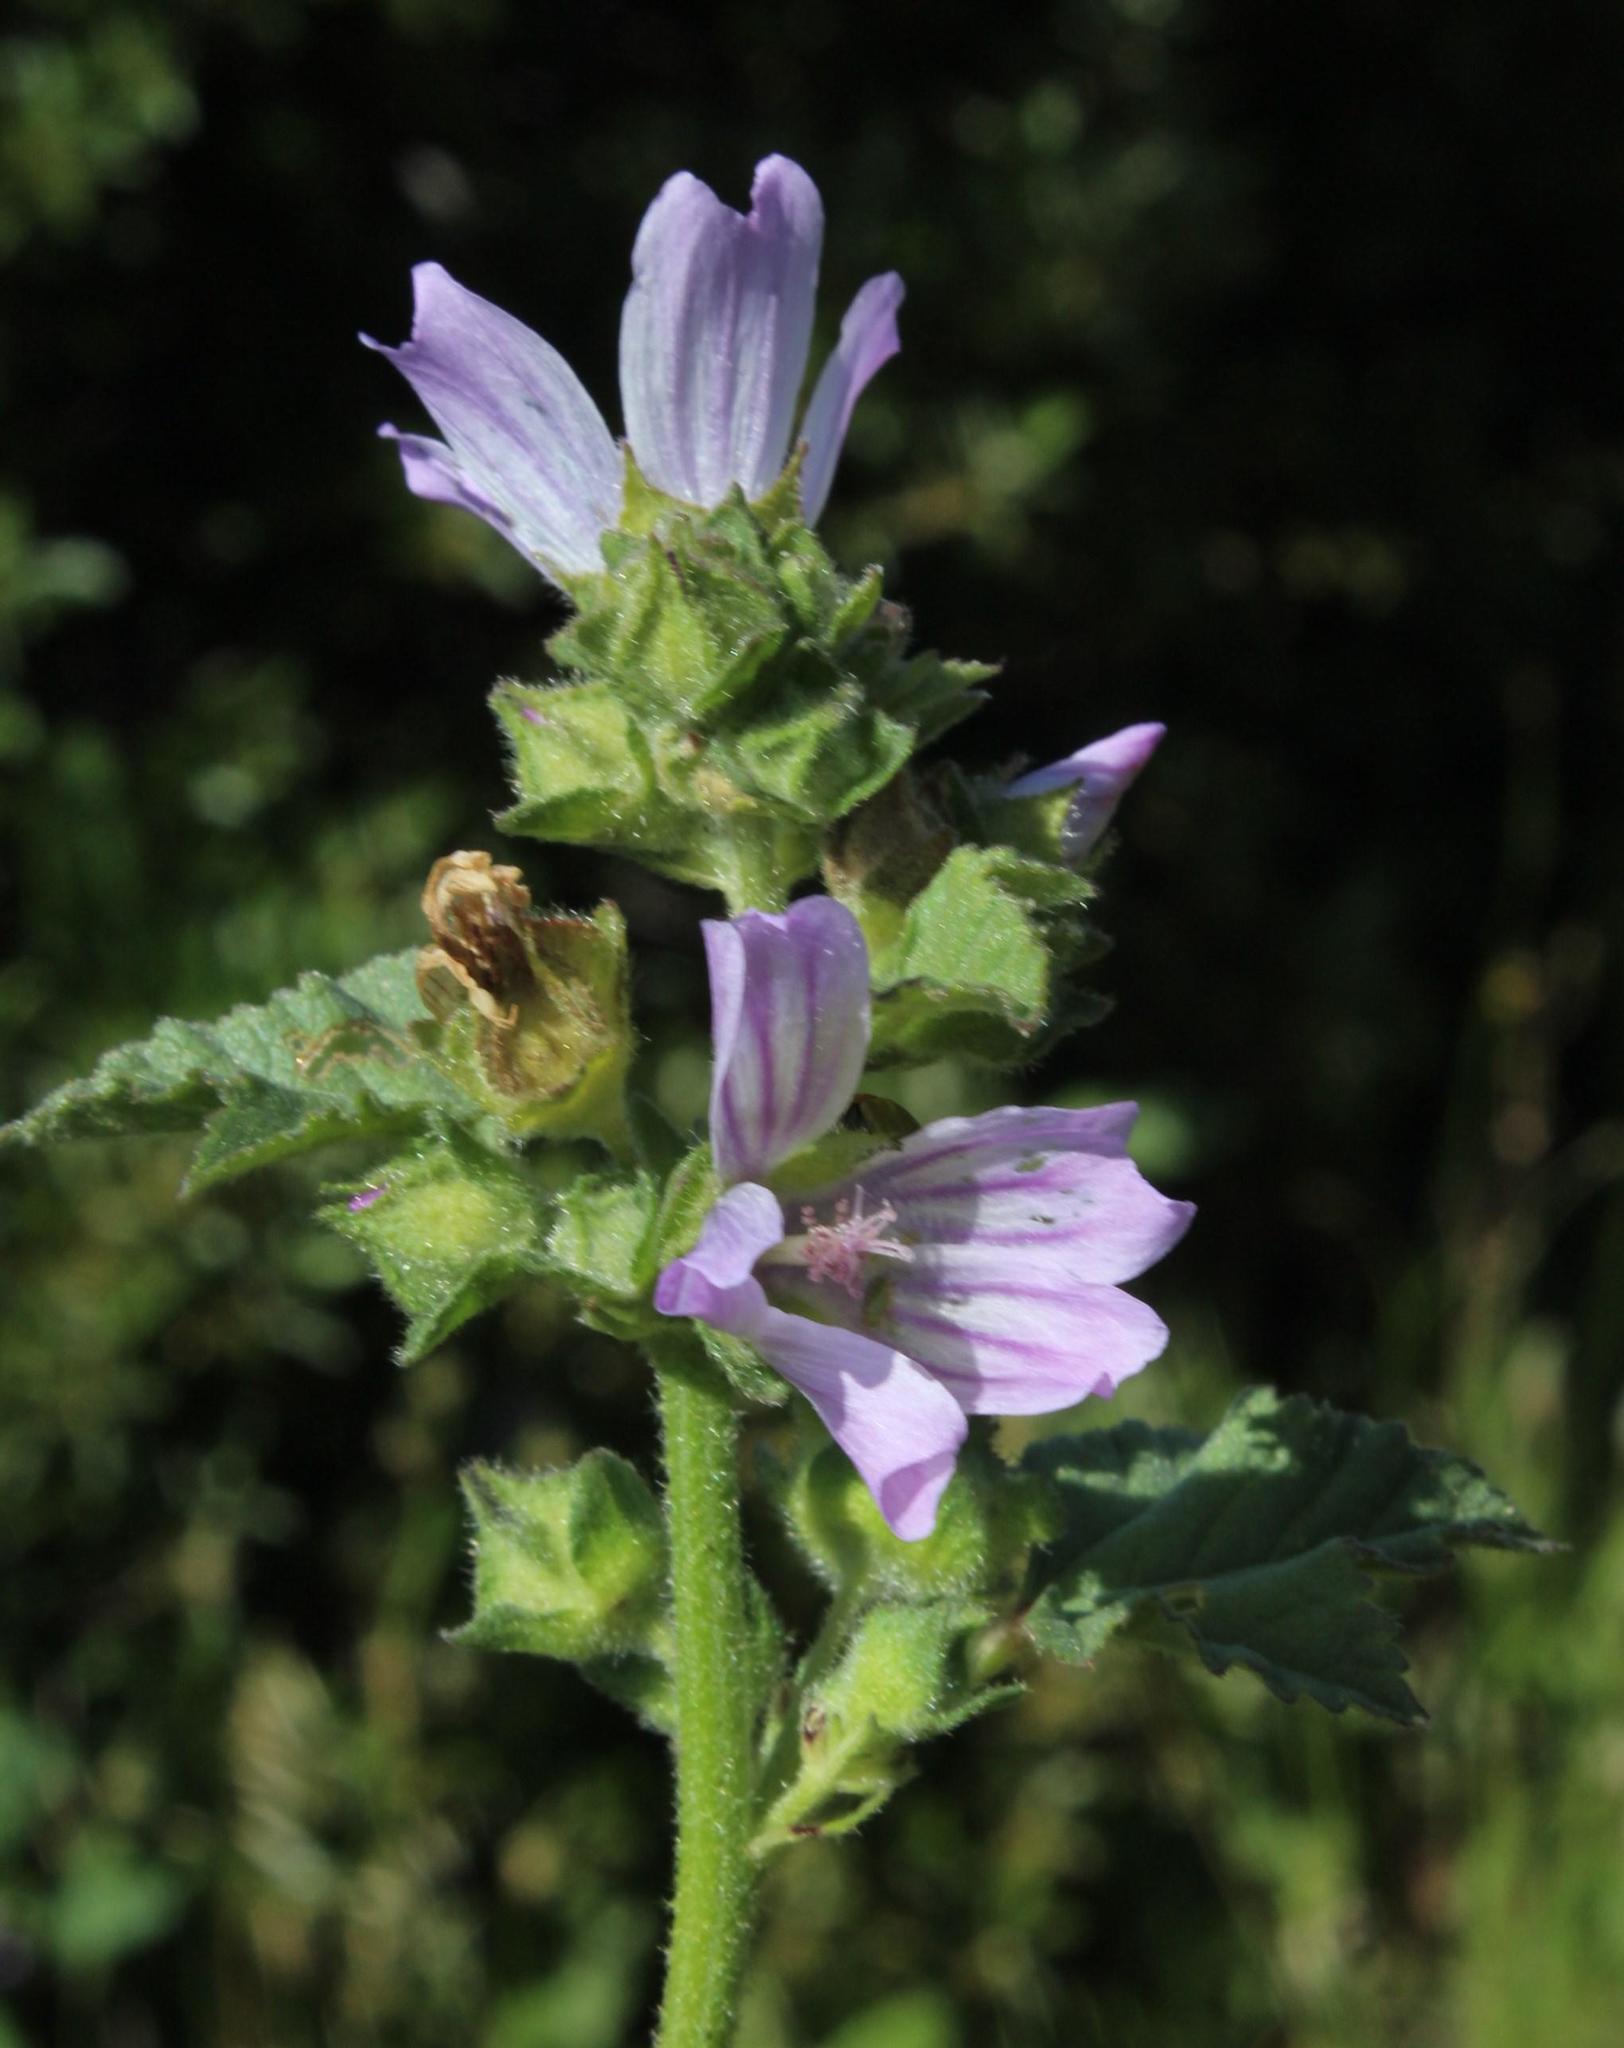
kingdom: Plantae
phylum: Tracheophyta
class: Magnoliopsida
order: Malvales
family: Malvaceae
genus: Malva
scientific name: Malva multiflora
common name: Cheeseweed
